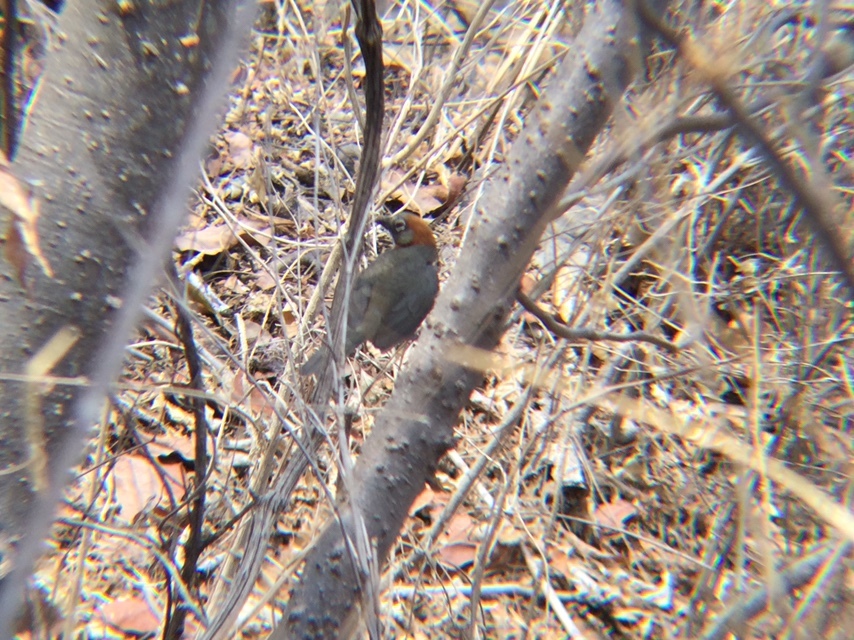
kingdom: Animalia
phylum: Chordata
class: Aves
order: Passeriformes
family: Passerellidae
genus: Melozone
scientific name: Melozone kieneri
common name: Rusty-crowned ground-sparrow
